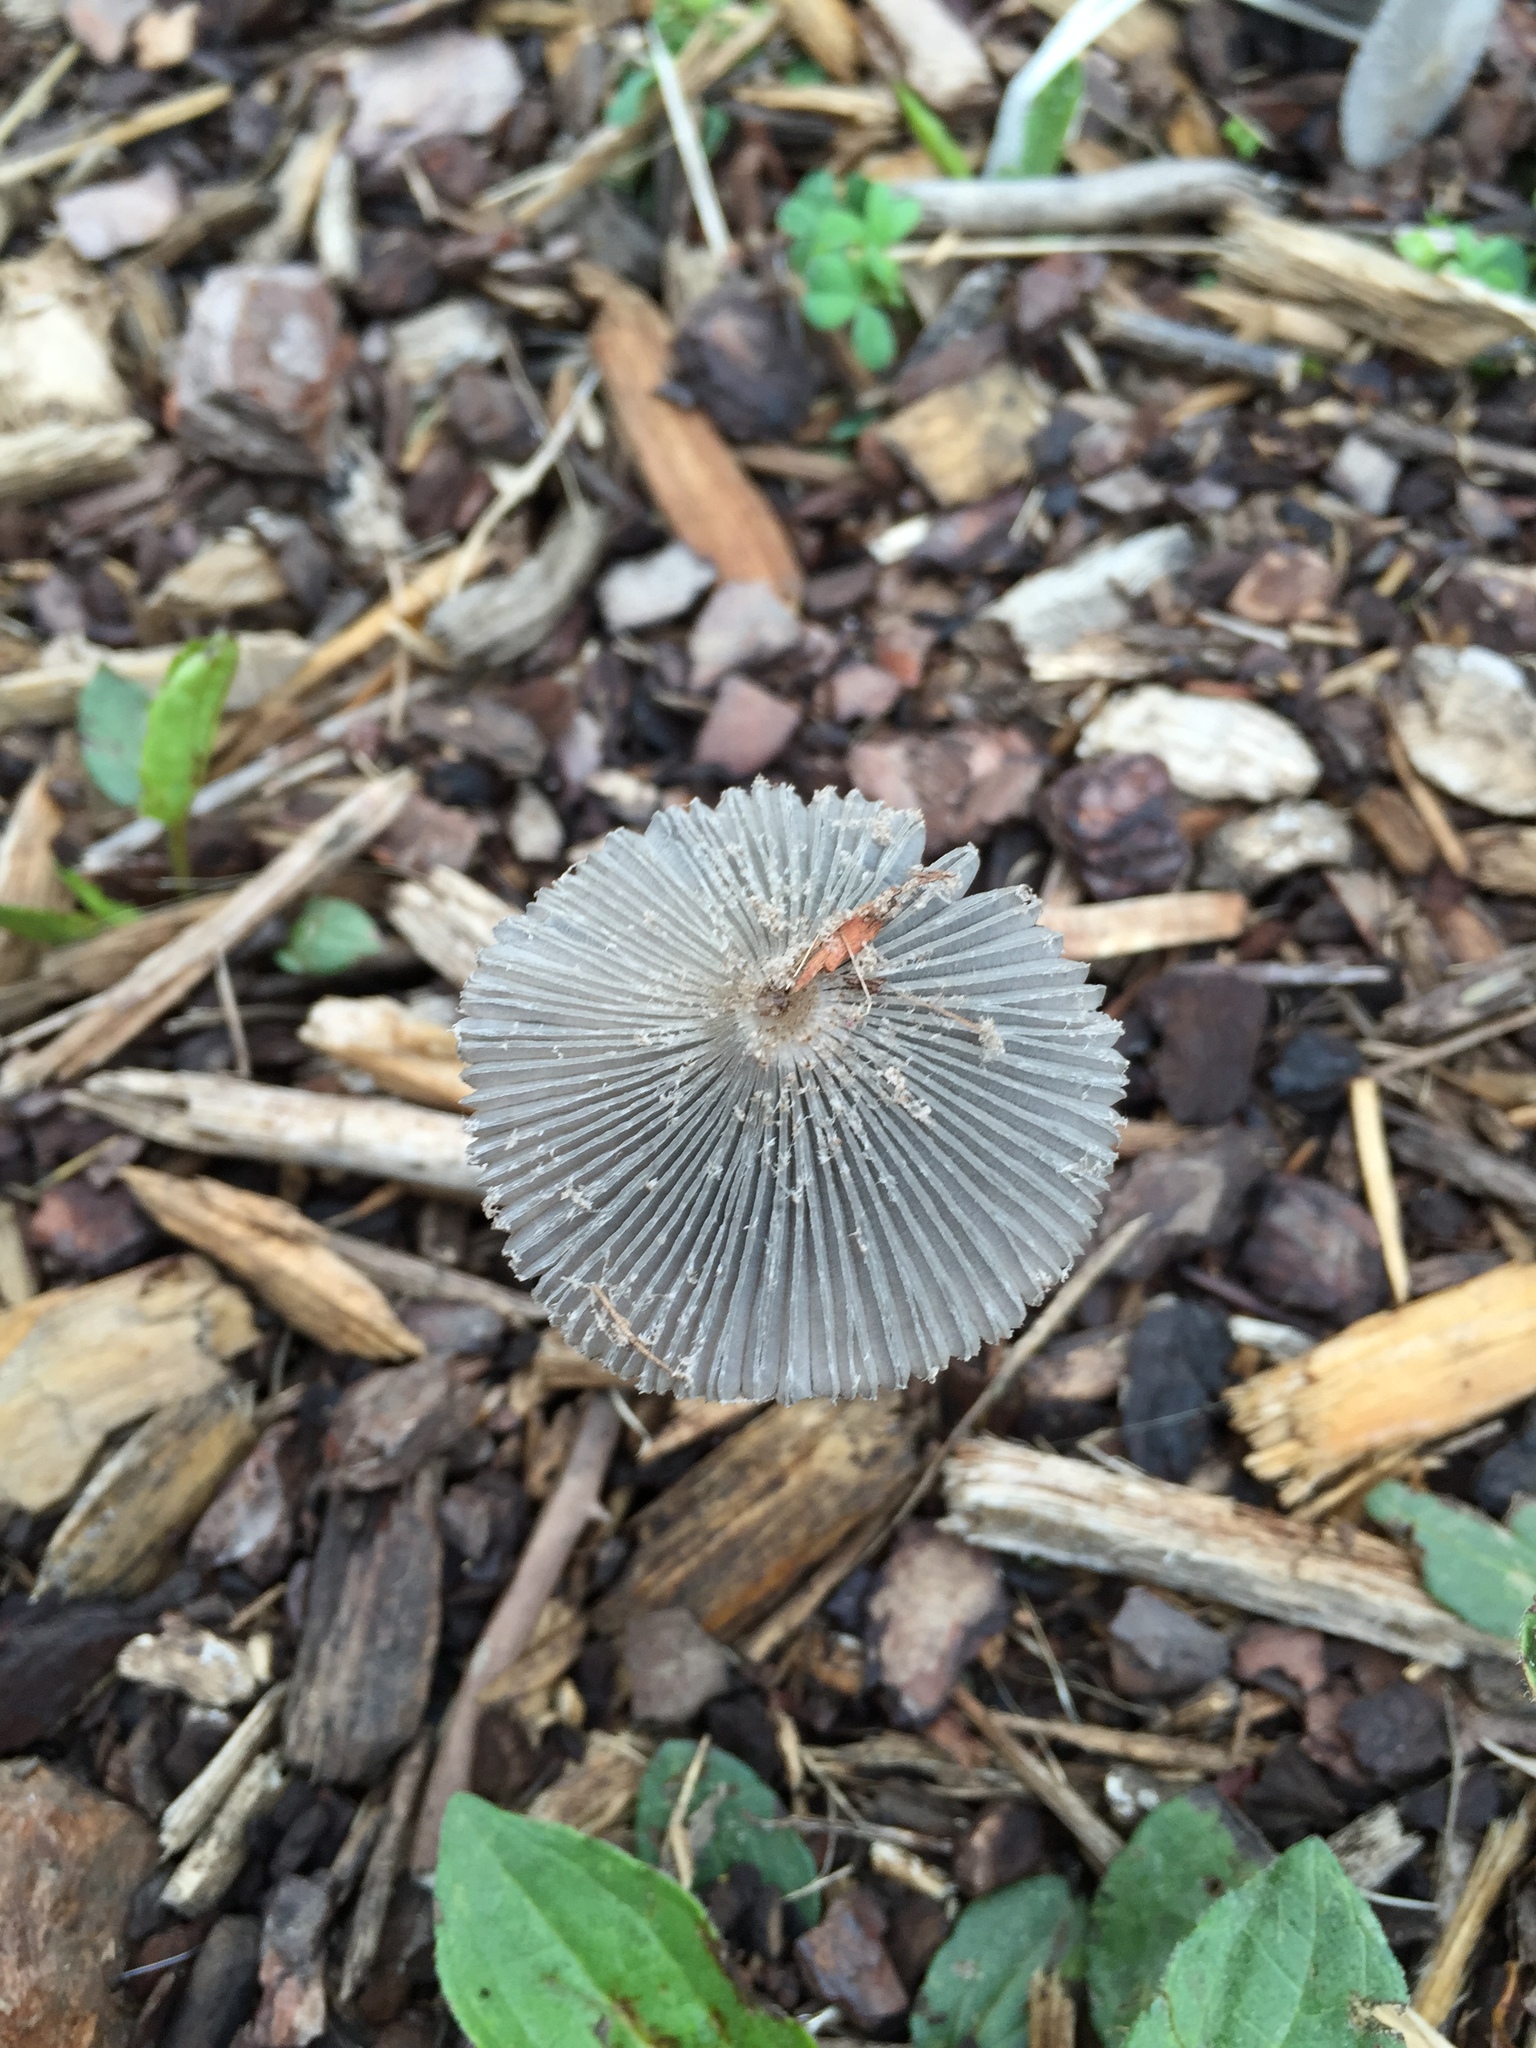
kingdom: Fungi
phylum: Basidiomycota
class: Agaricomycetes
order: Agaricales
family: Psathyrellaceae
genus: Coprinopsis
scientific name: Coprinopsis lagopus
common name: Hare'sfoot inkcap
